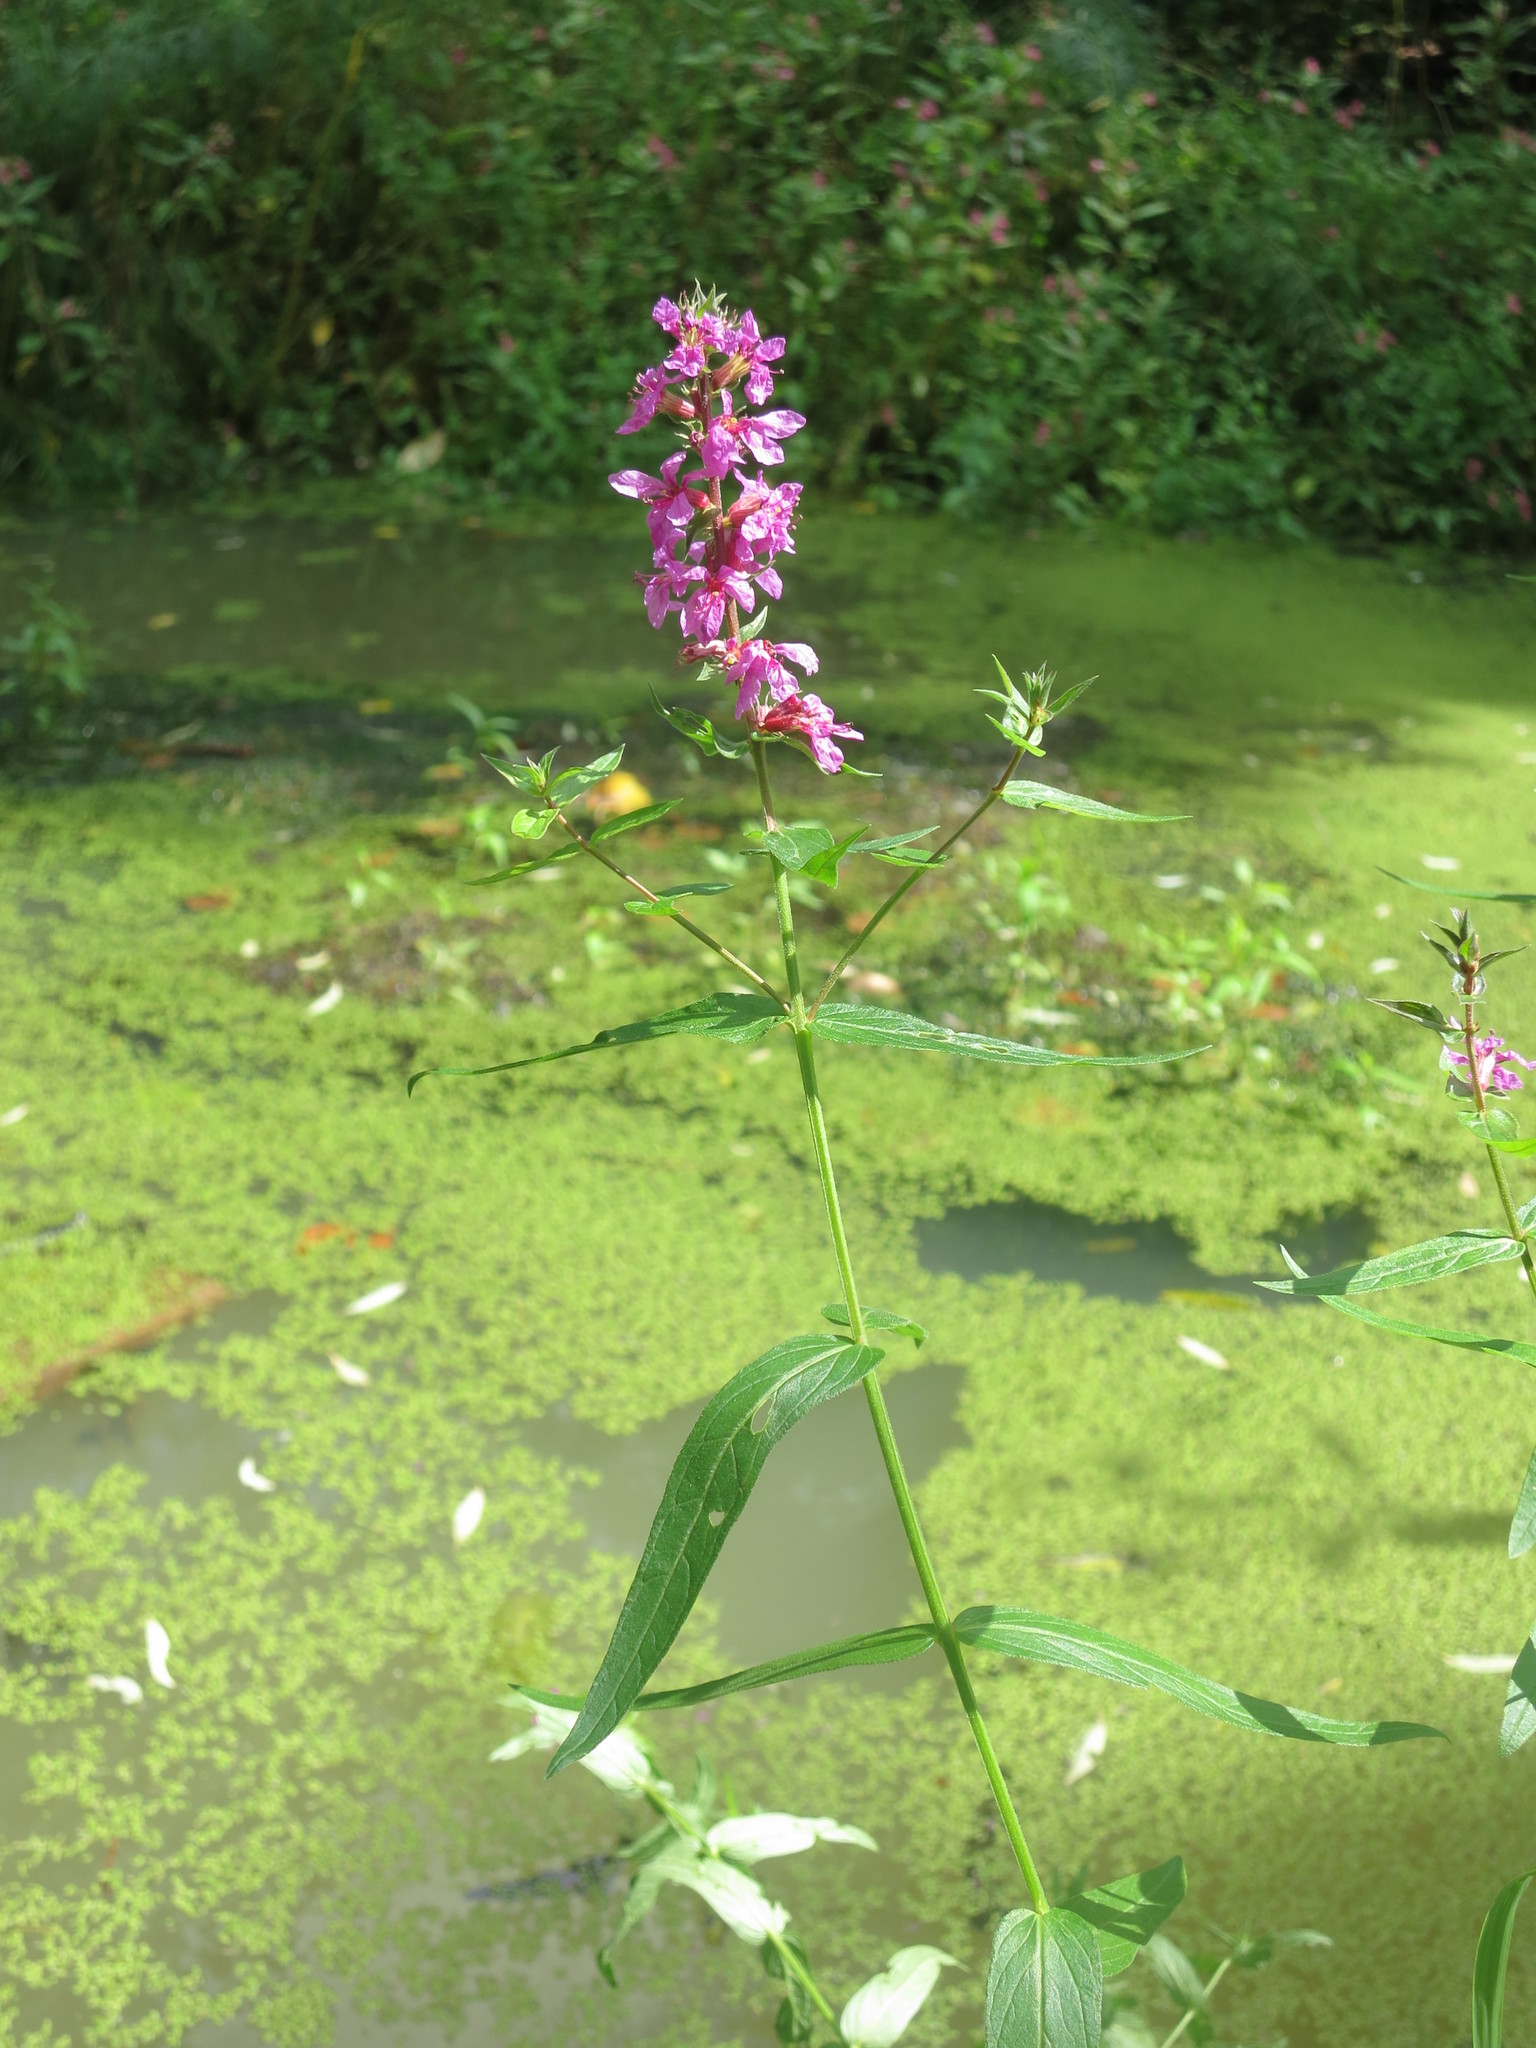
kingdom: Plantae
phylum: Tracheophyta
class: Magnoliopsida
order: Myrtales
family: Lythraceae
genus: Lythrum
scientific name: Lythrum salicaria
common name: Purple loosestrife
